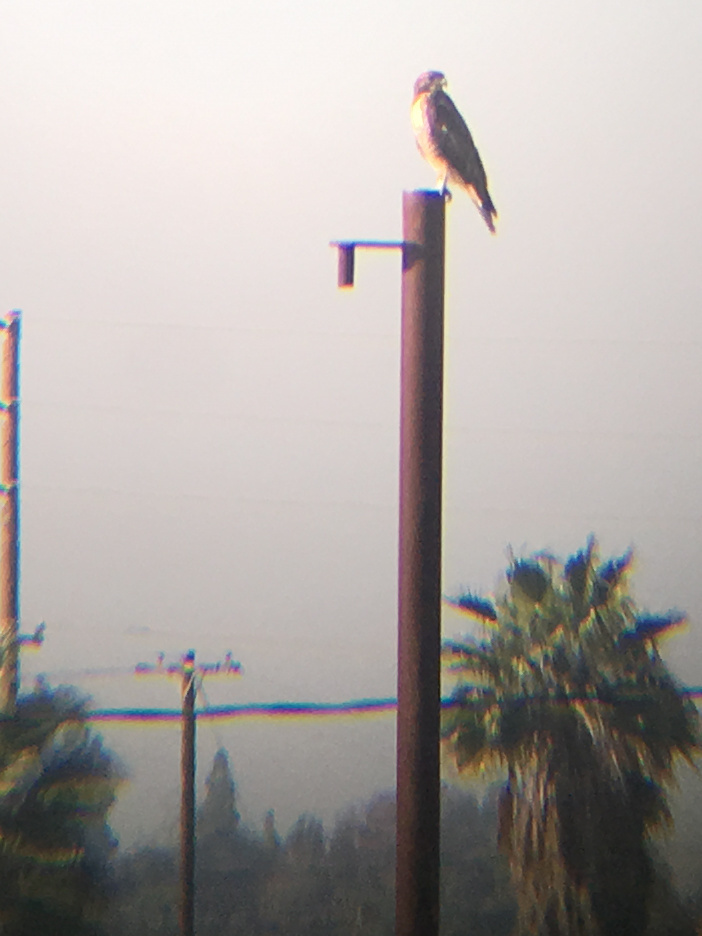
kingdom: Animalia
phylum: Chordata
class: Aves
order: Accipitriformes
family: Accipitridae
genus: Buteo
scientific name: Buteo jamaicensis
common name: Red-tailed hawk
